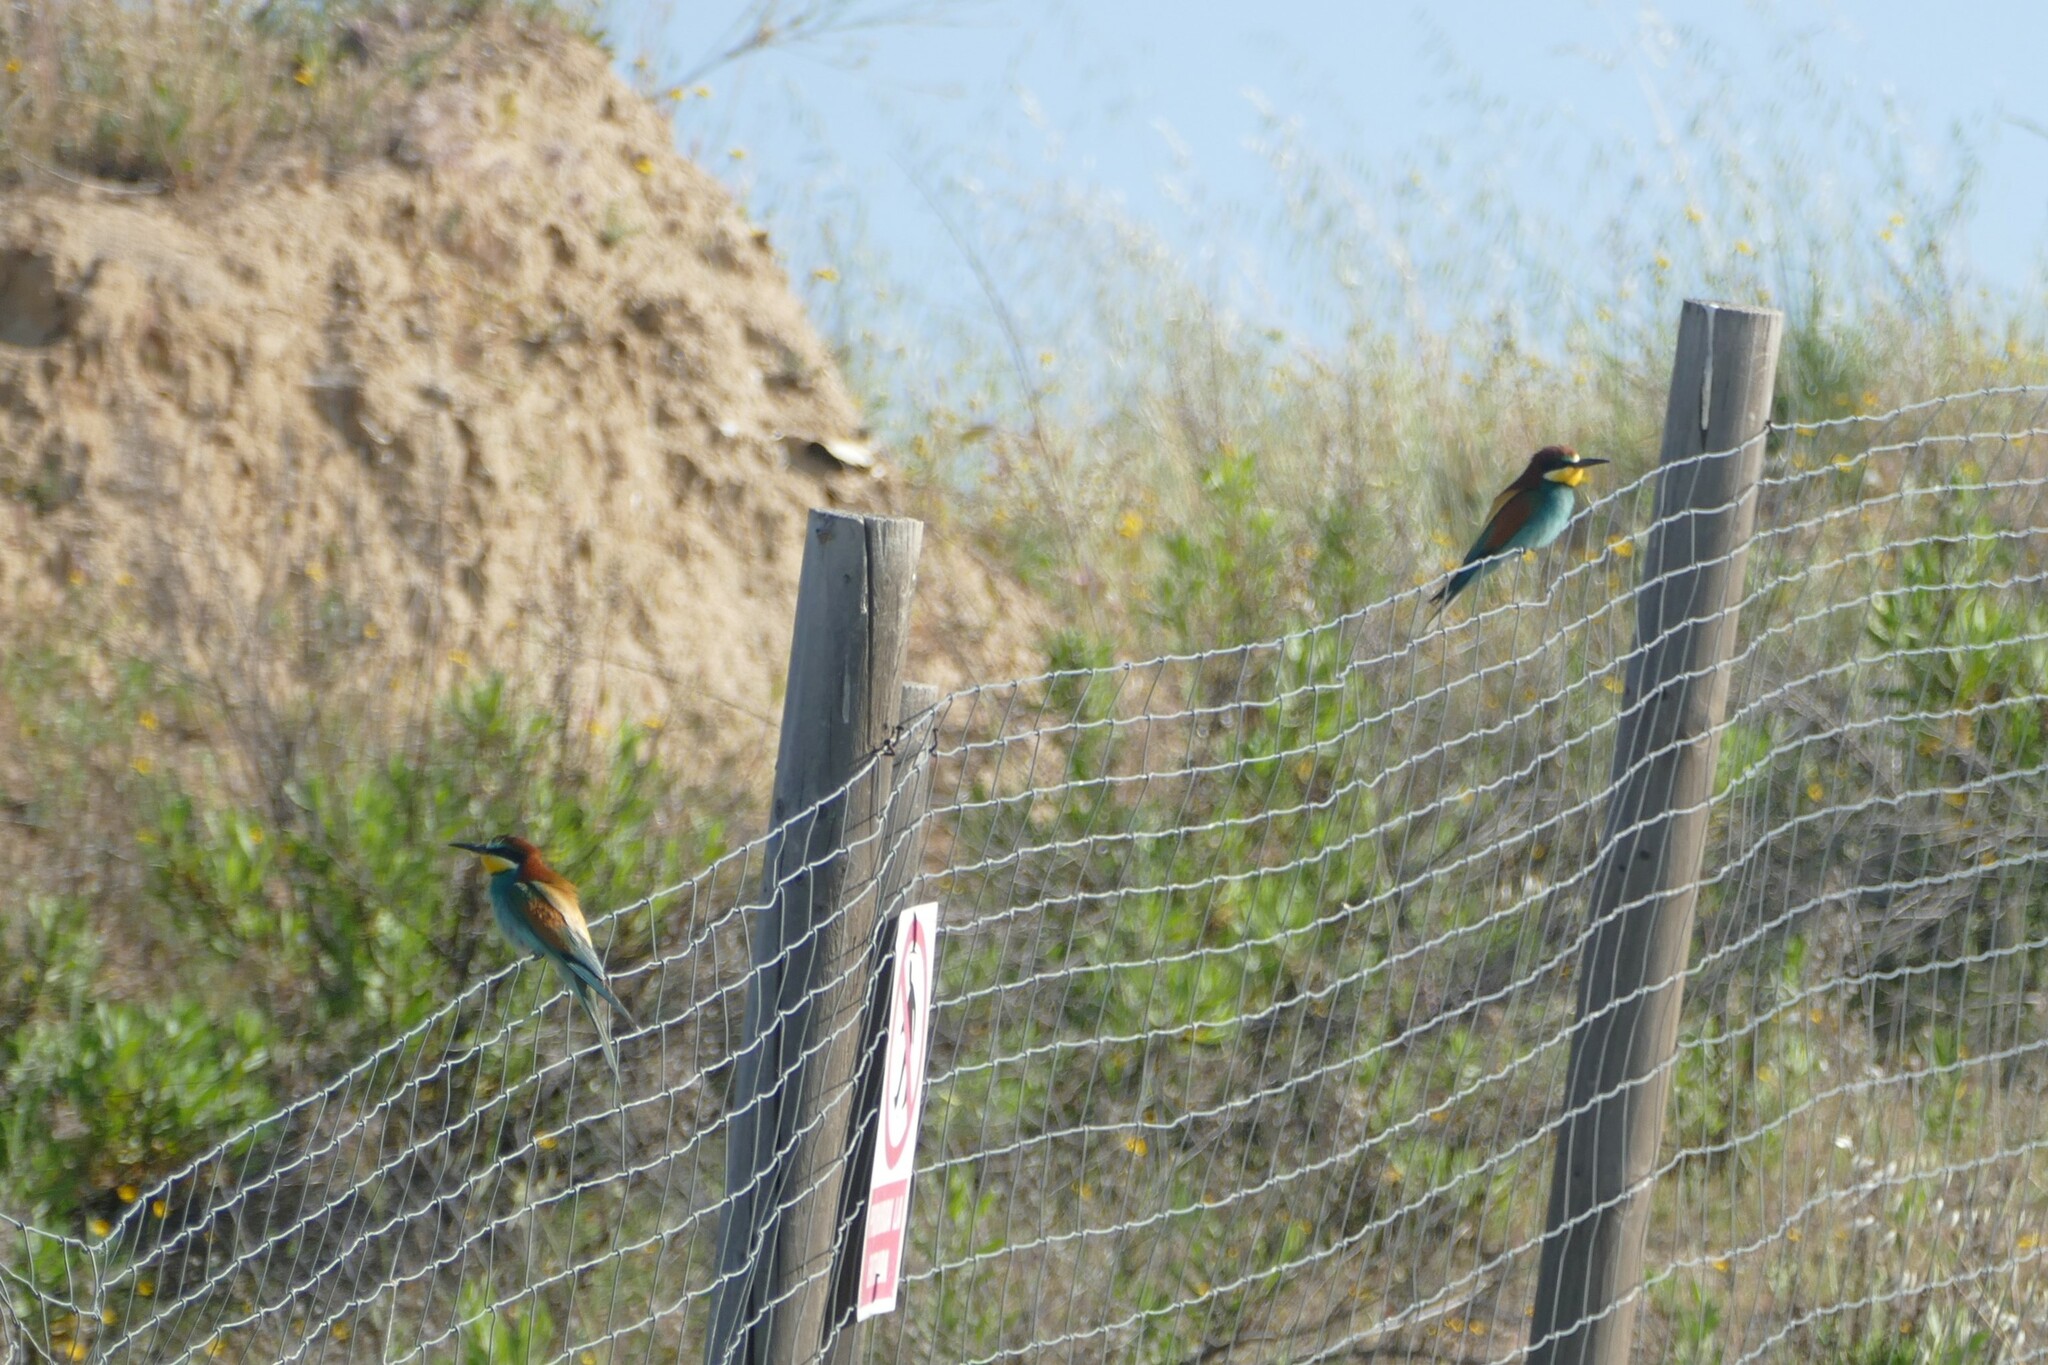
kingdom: Animalia
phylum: Chordata
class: Aves
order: Coraciiformes
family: Meropidae
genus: Merops
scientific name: Merops apiaster
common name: European bee-eater
